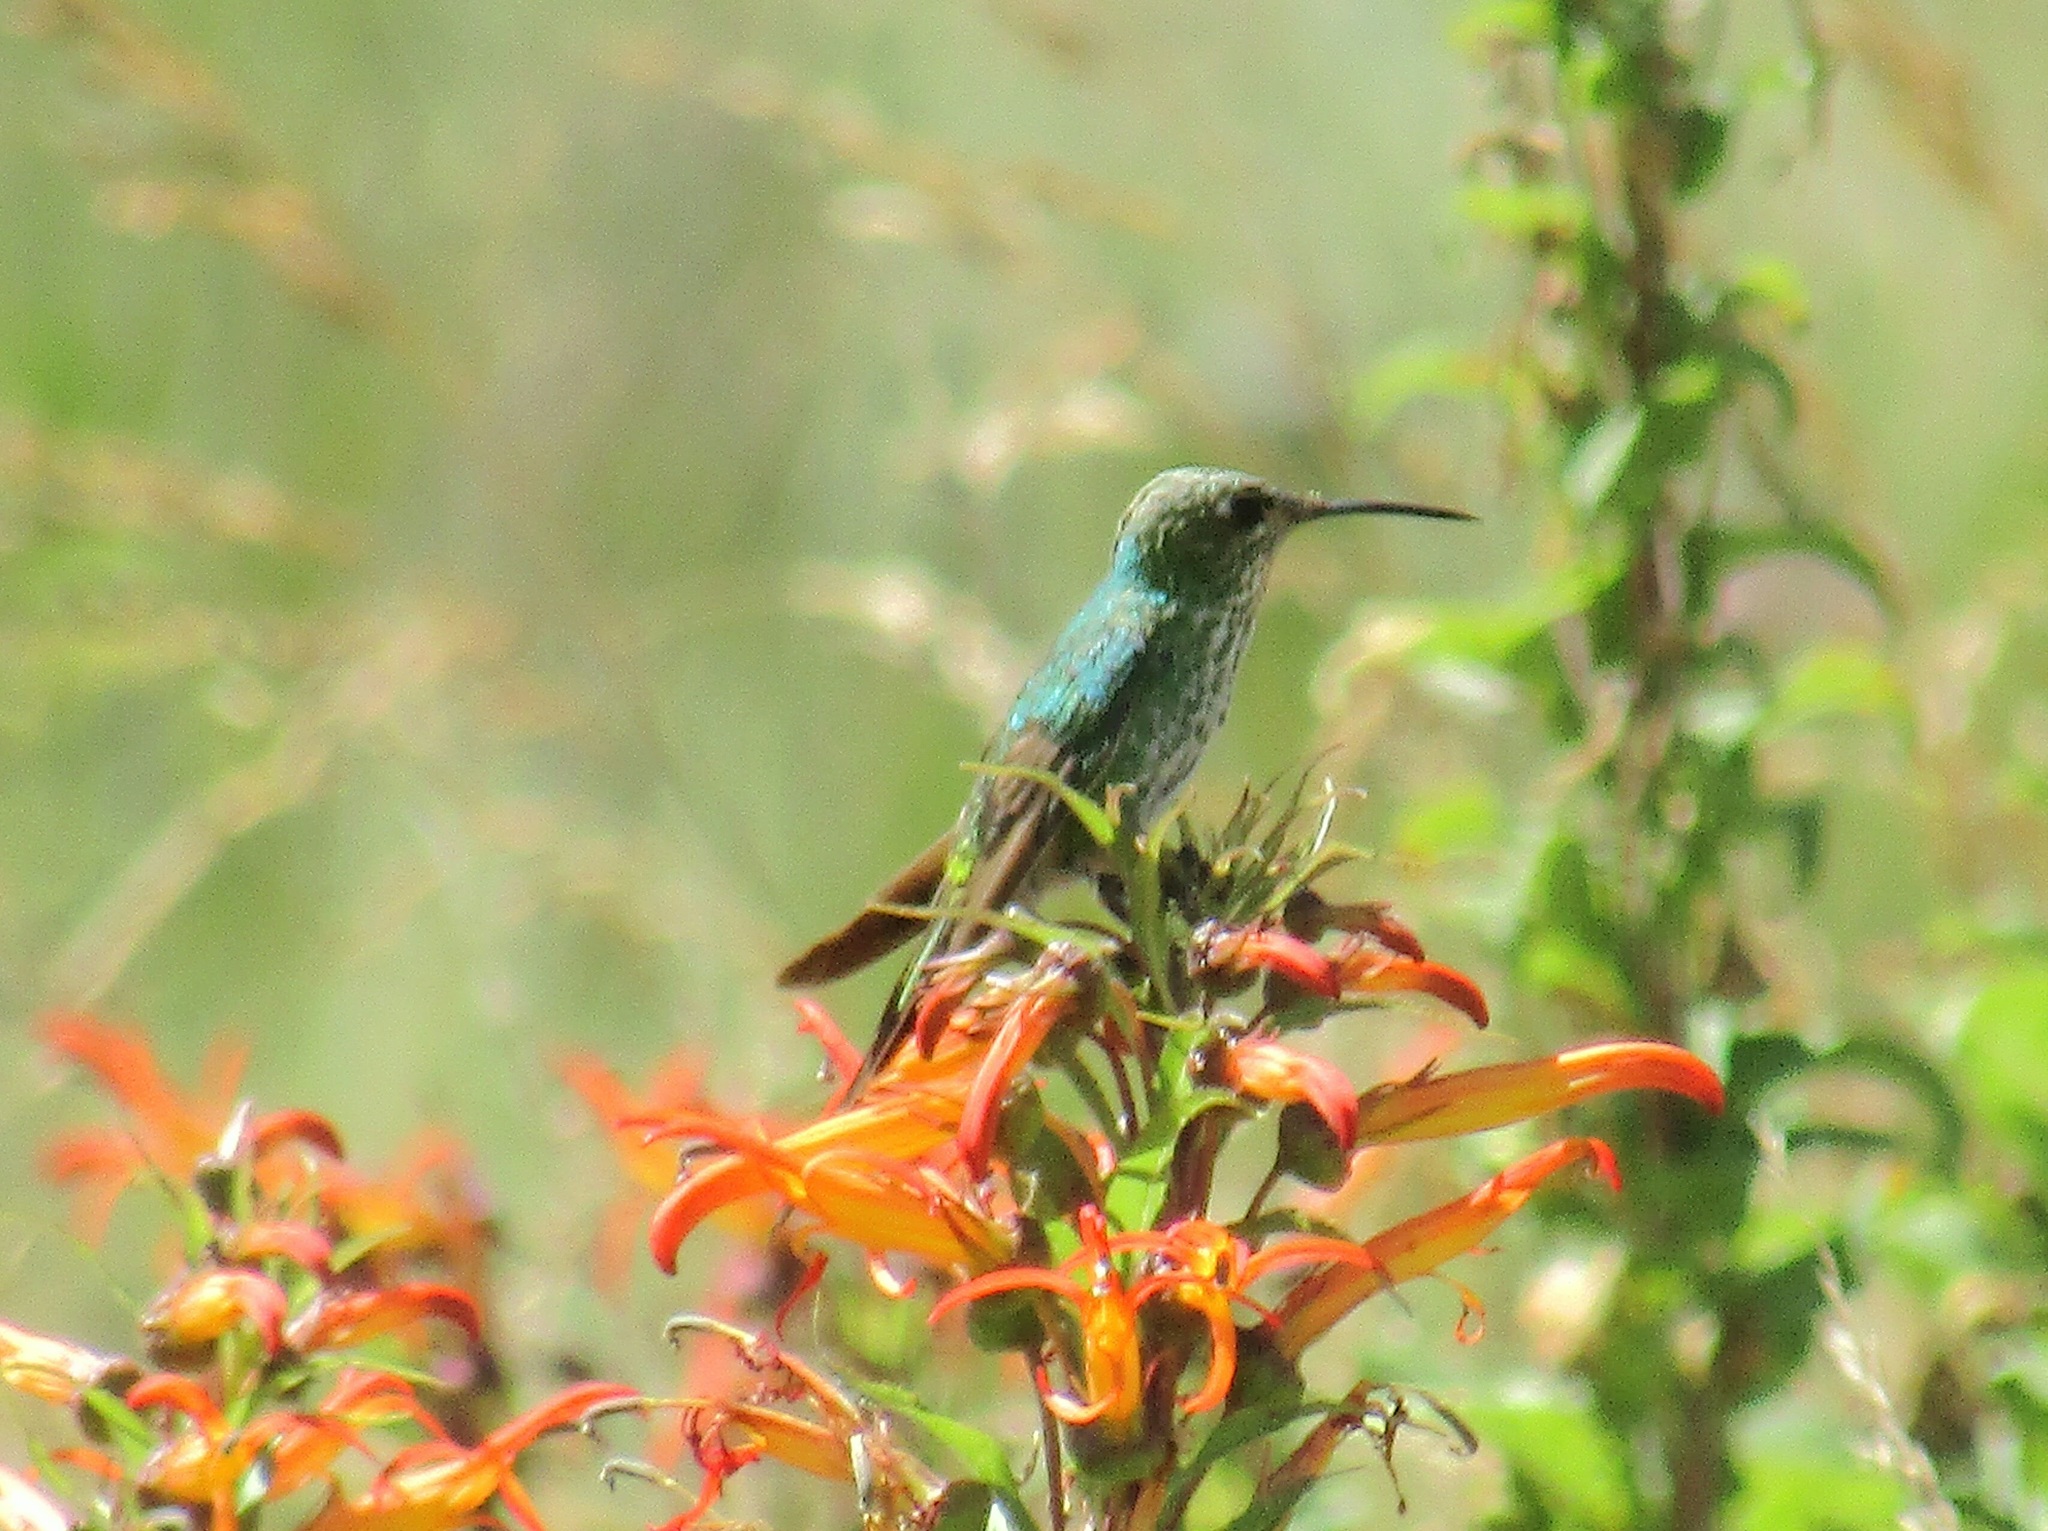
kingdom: Animalia
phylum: Chordata
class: Aves
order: Apodiformes
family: Trochilidae
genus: Heliomaster
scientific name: Heliomaster furcifer
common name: Blue-tufted starthroat
